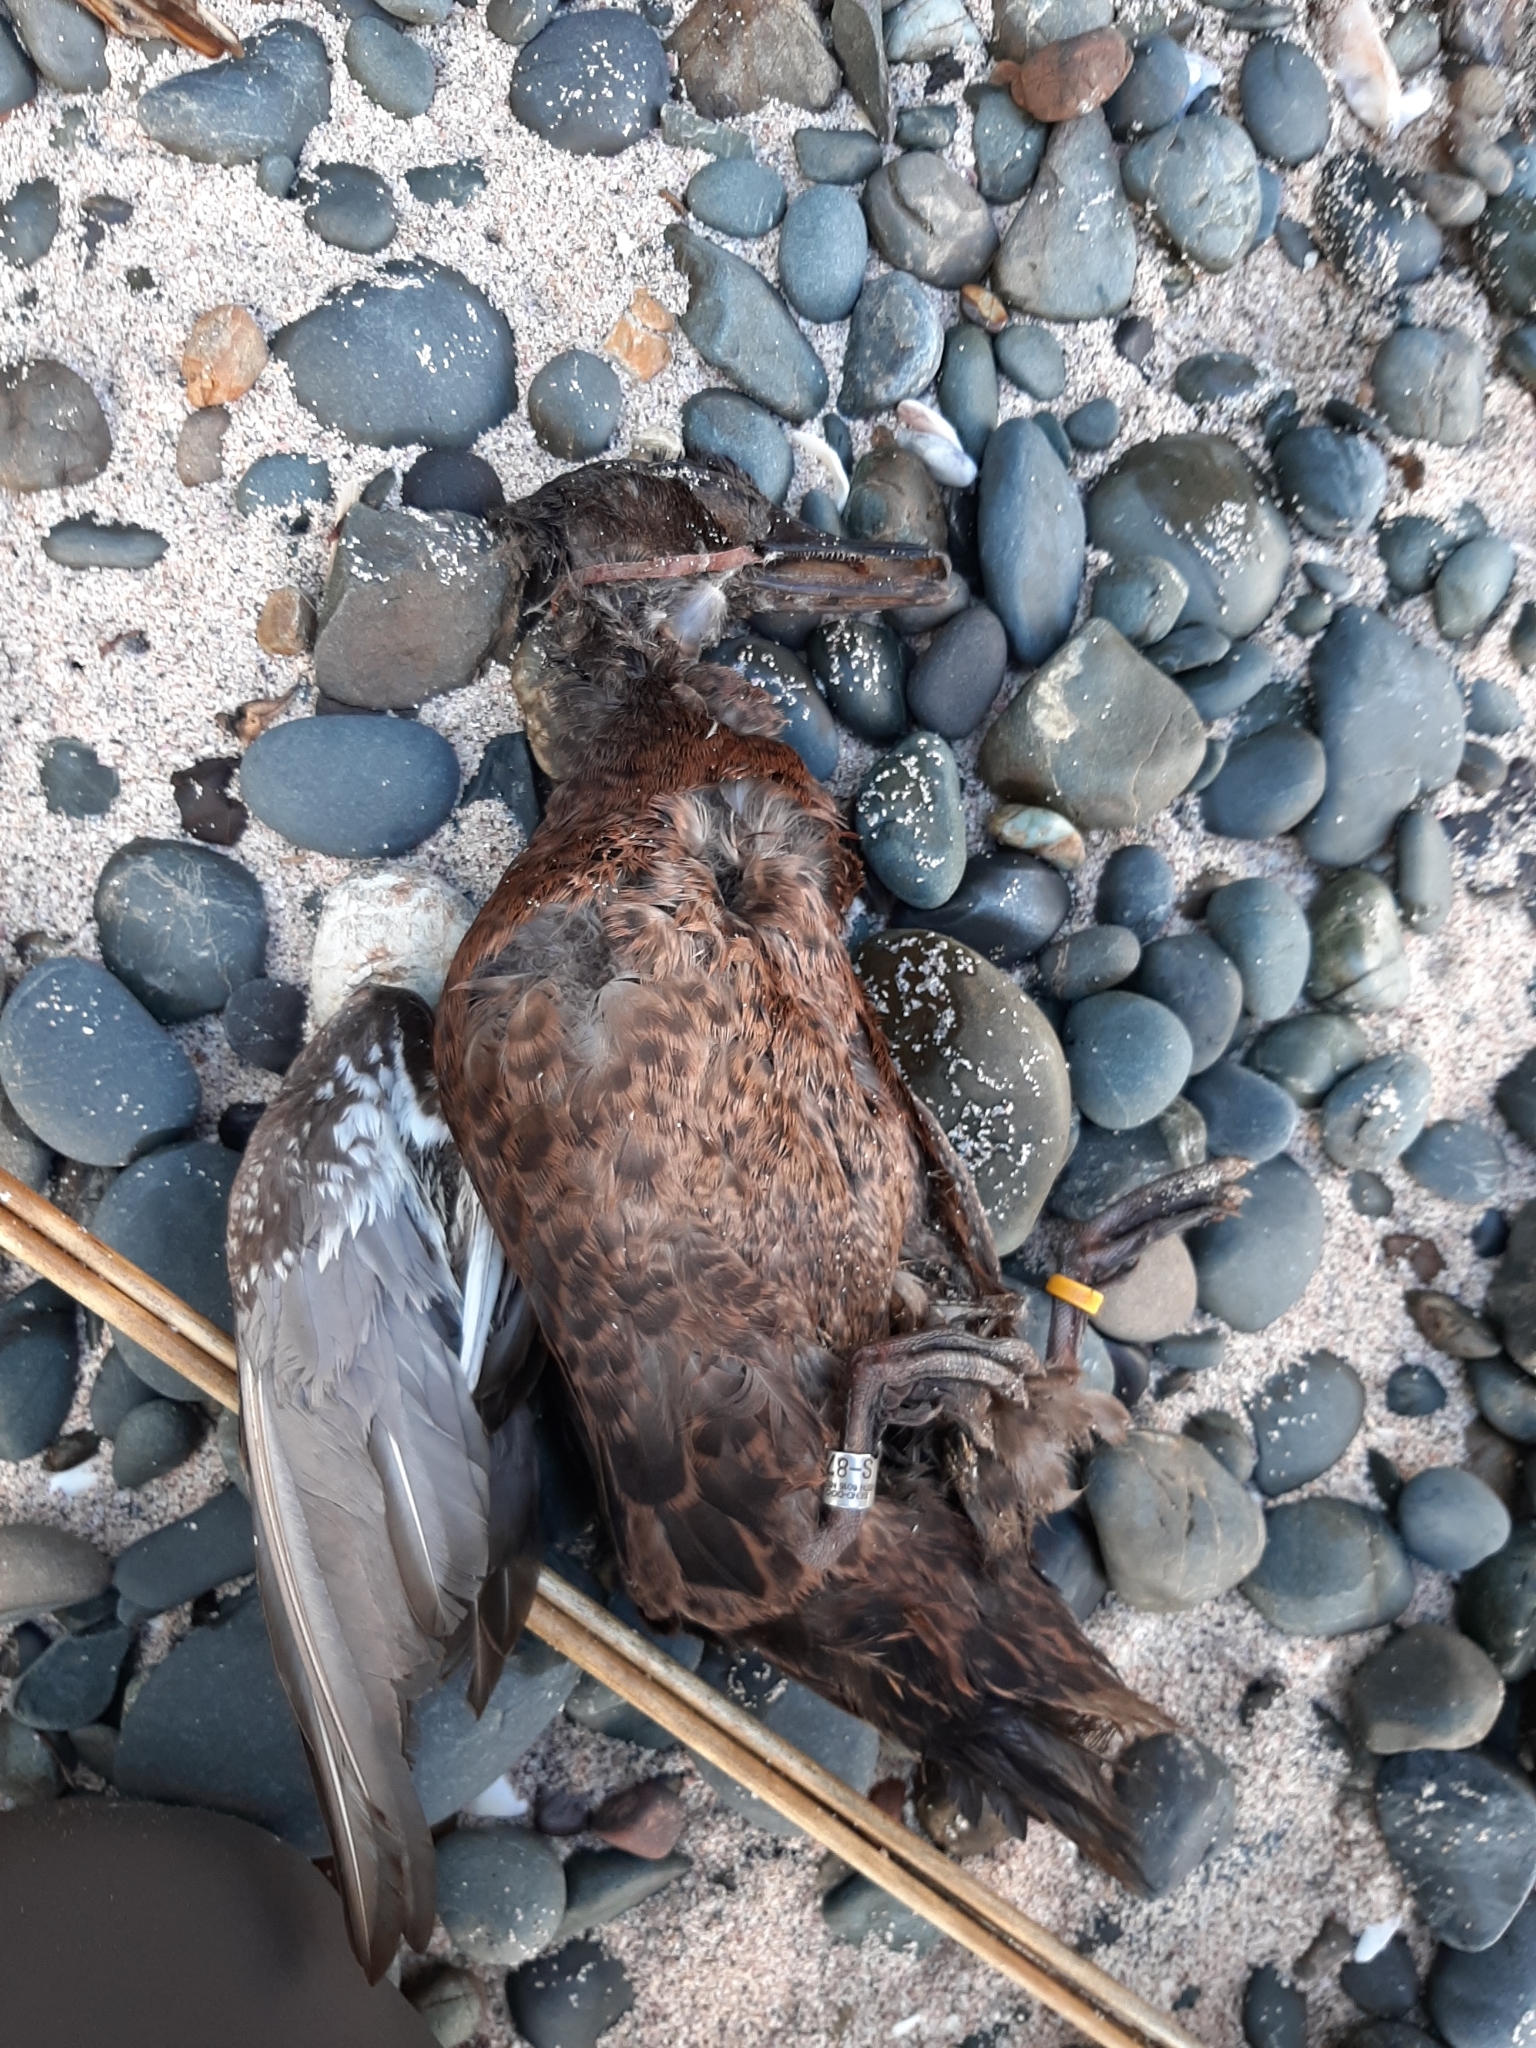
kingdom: Animalia
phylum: Chordata
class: Aves
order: Anseriformes
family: Anatidae
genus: Anas
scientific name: Anas chlorotis
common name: Brown teal
